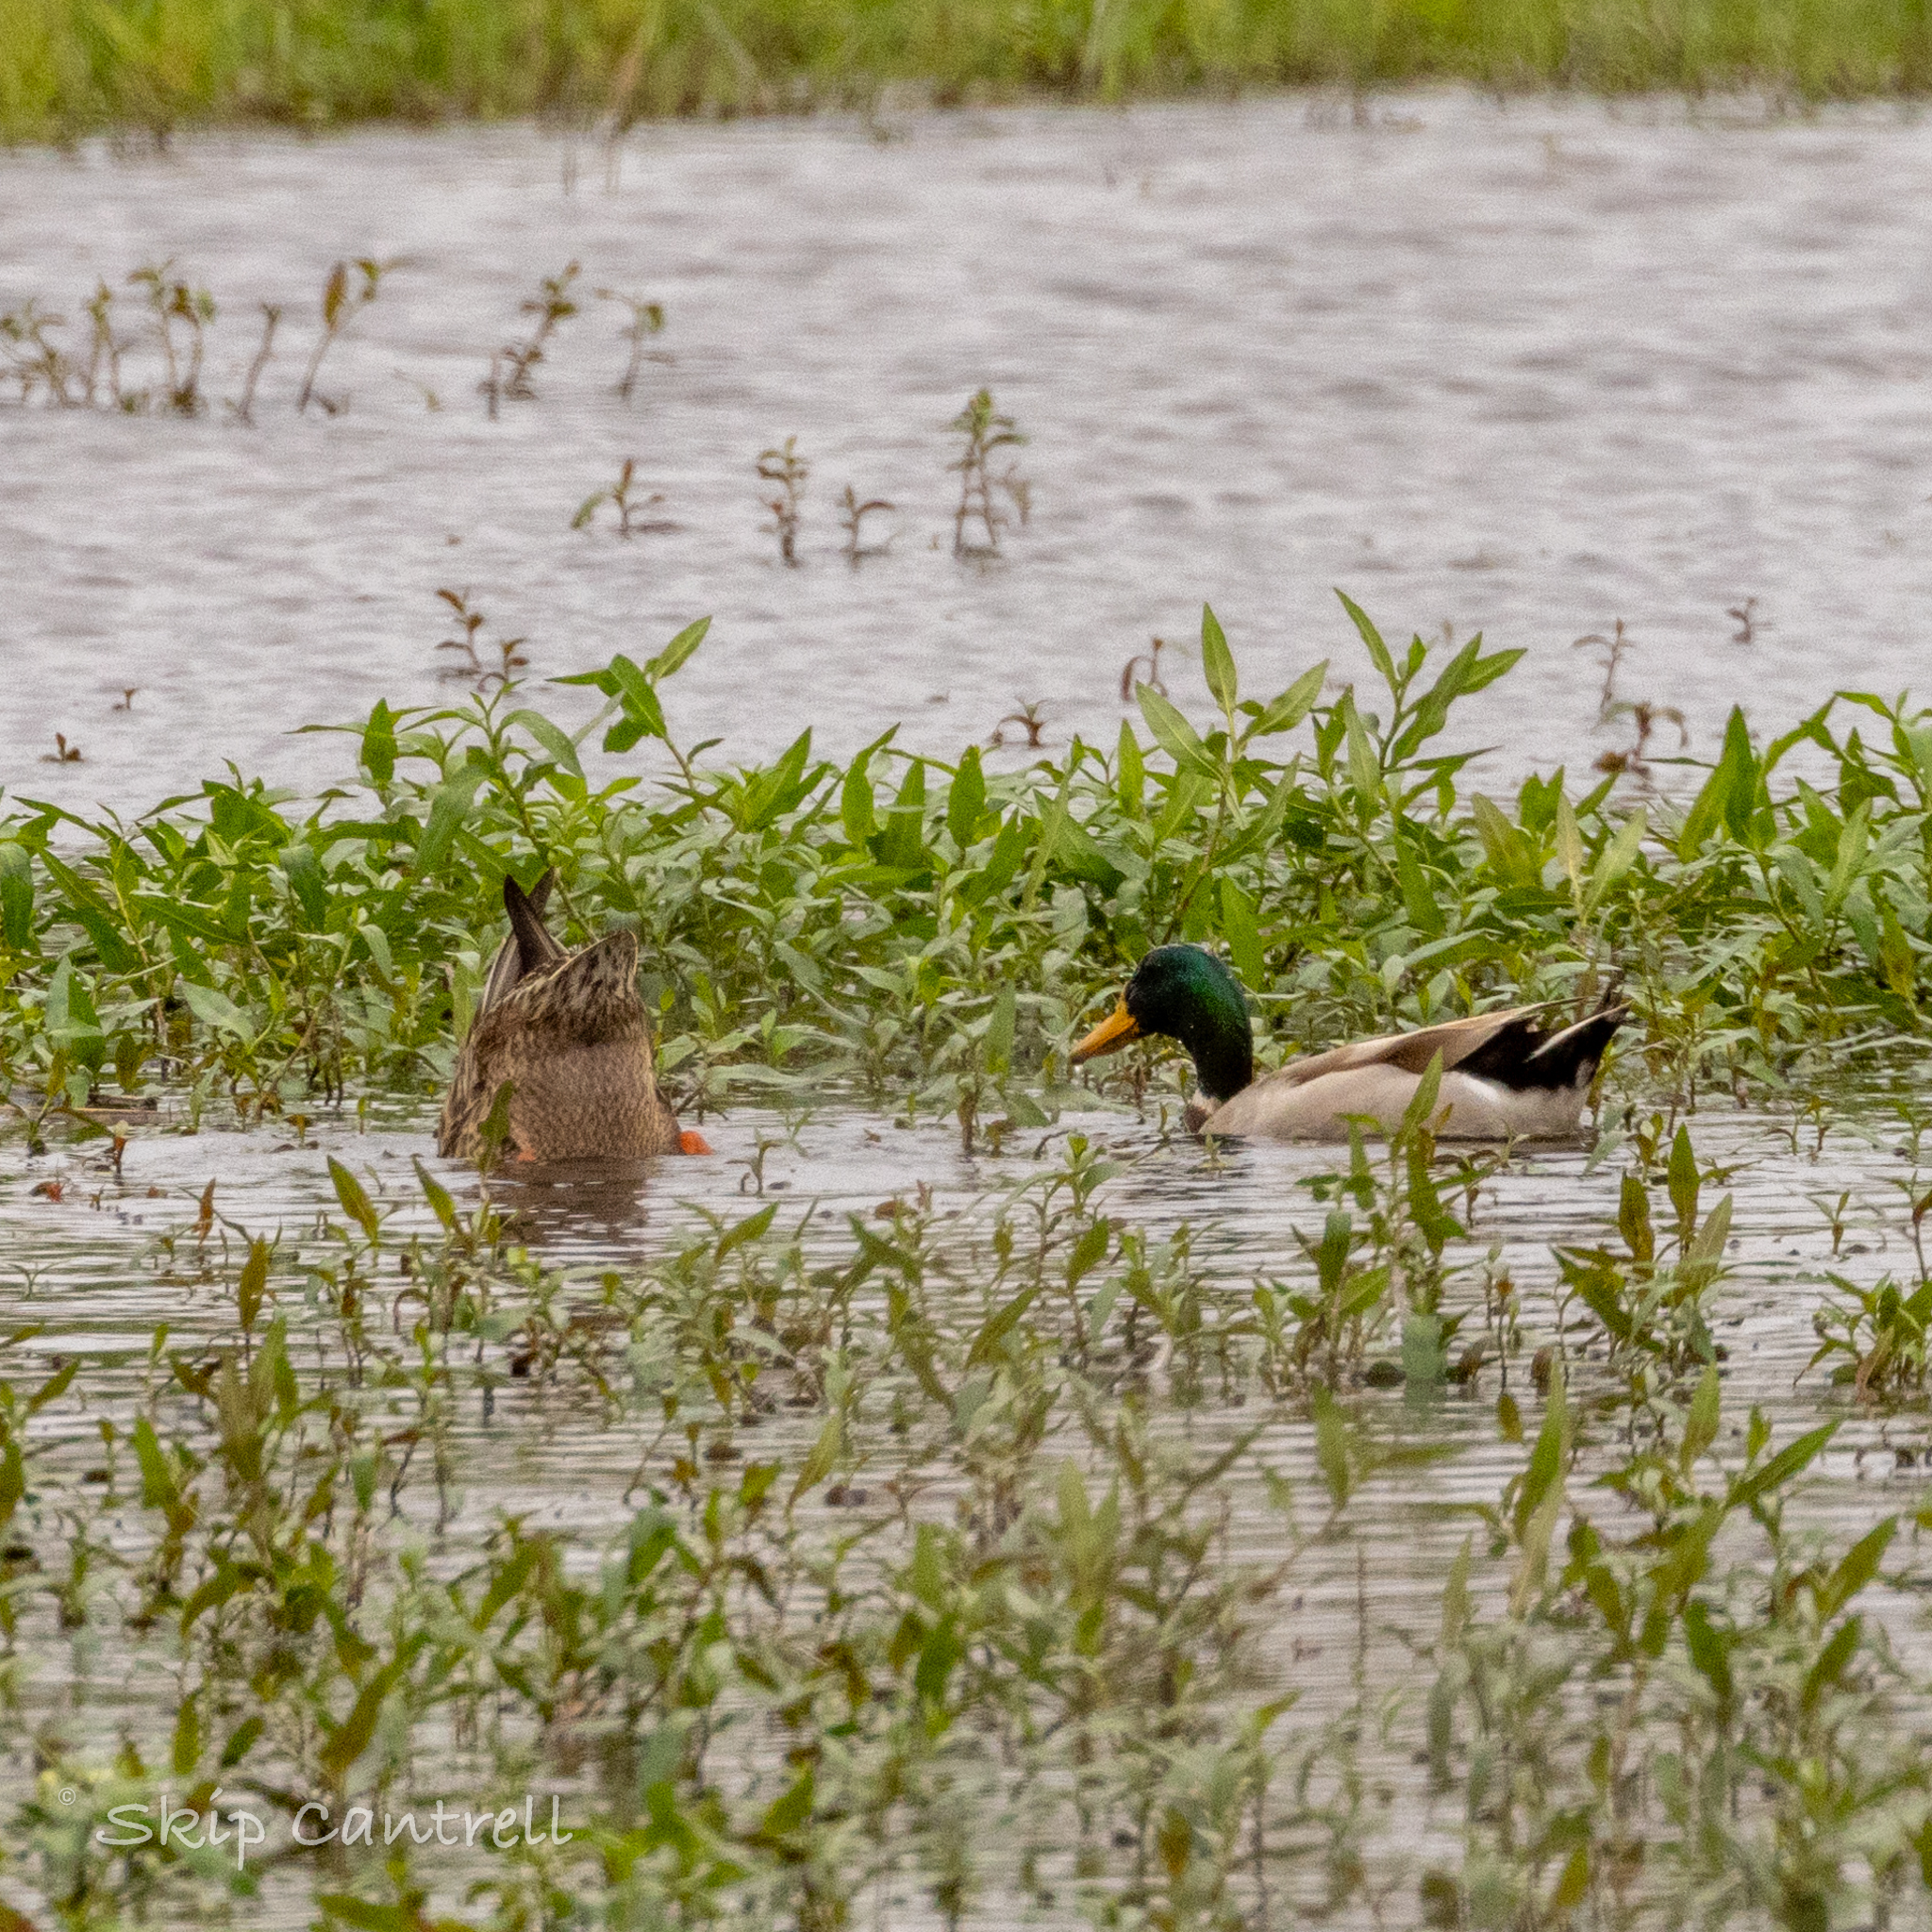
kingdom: Animalia
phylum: Chordata
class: Aves
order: Anseriformes
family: Anatidae
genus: Anas
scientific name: Anas platyrhynchos
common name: Mallard
